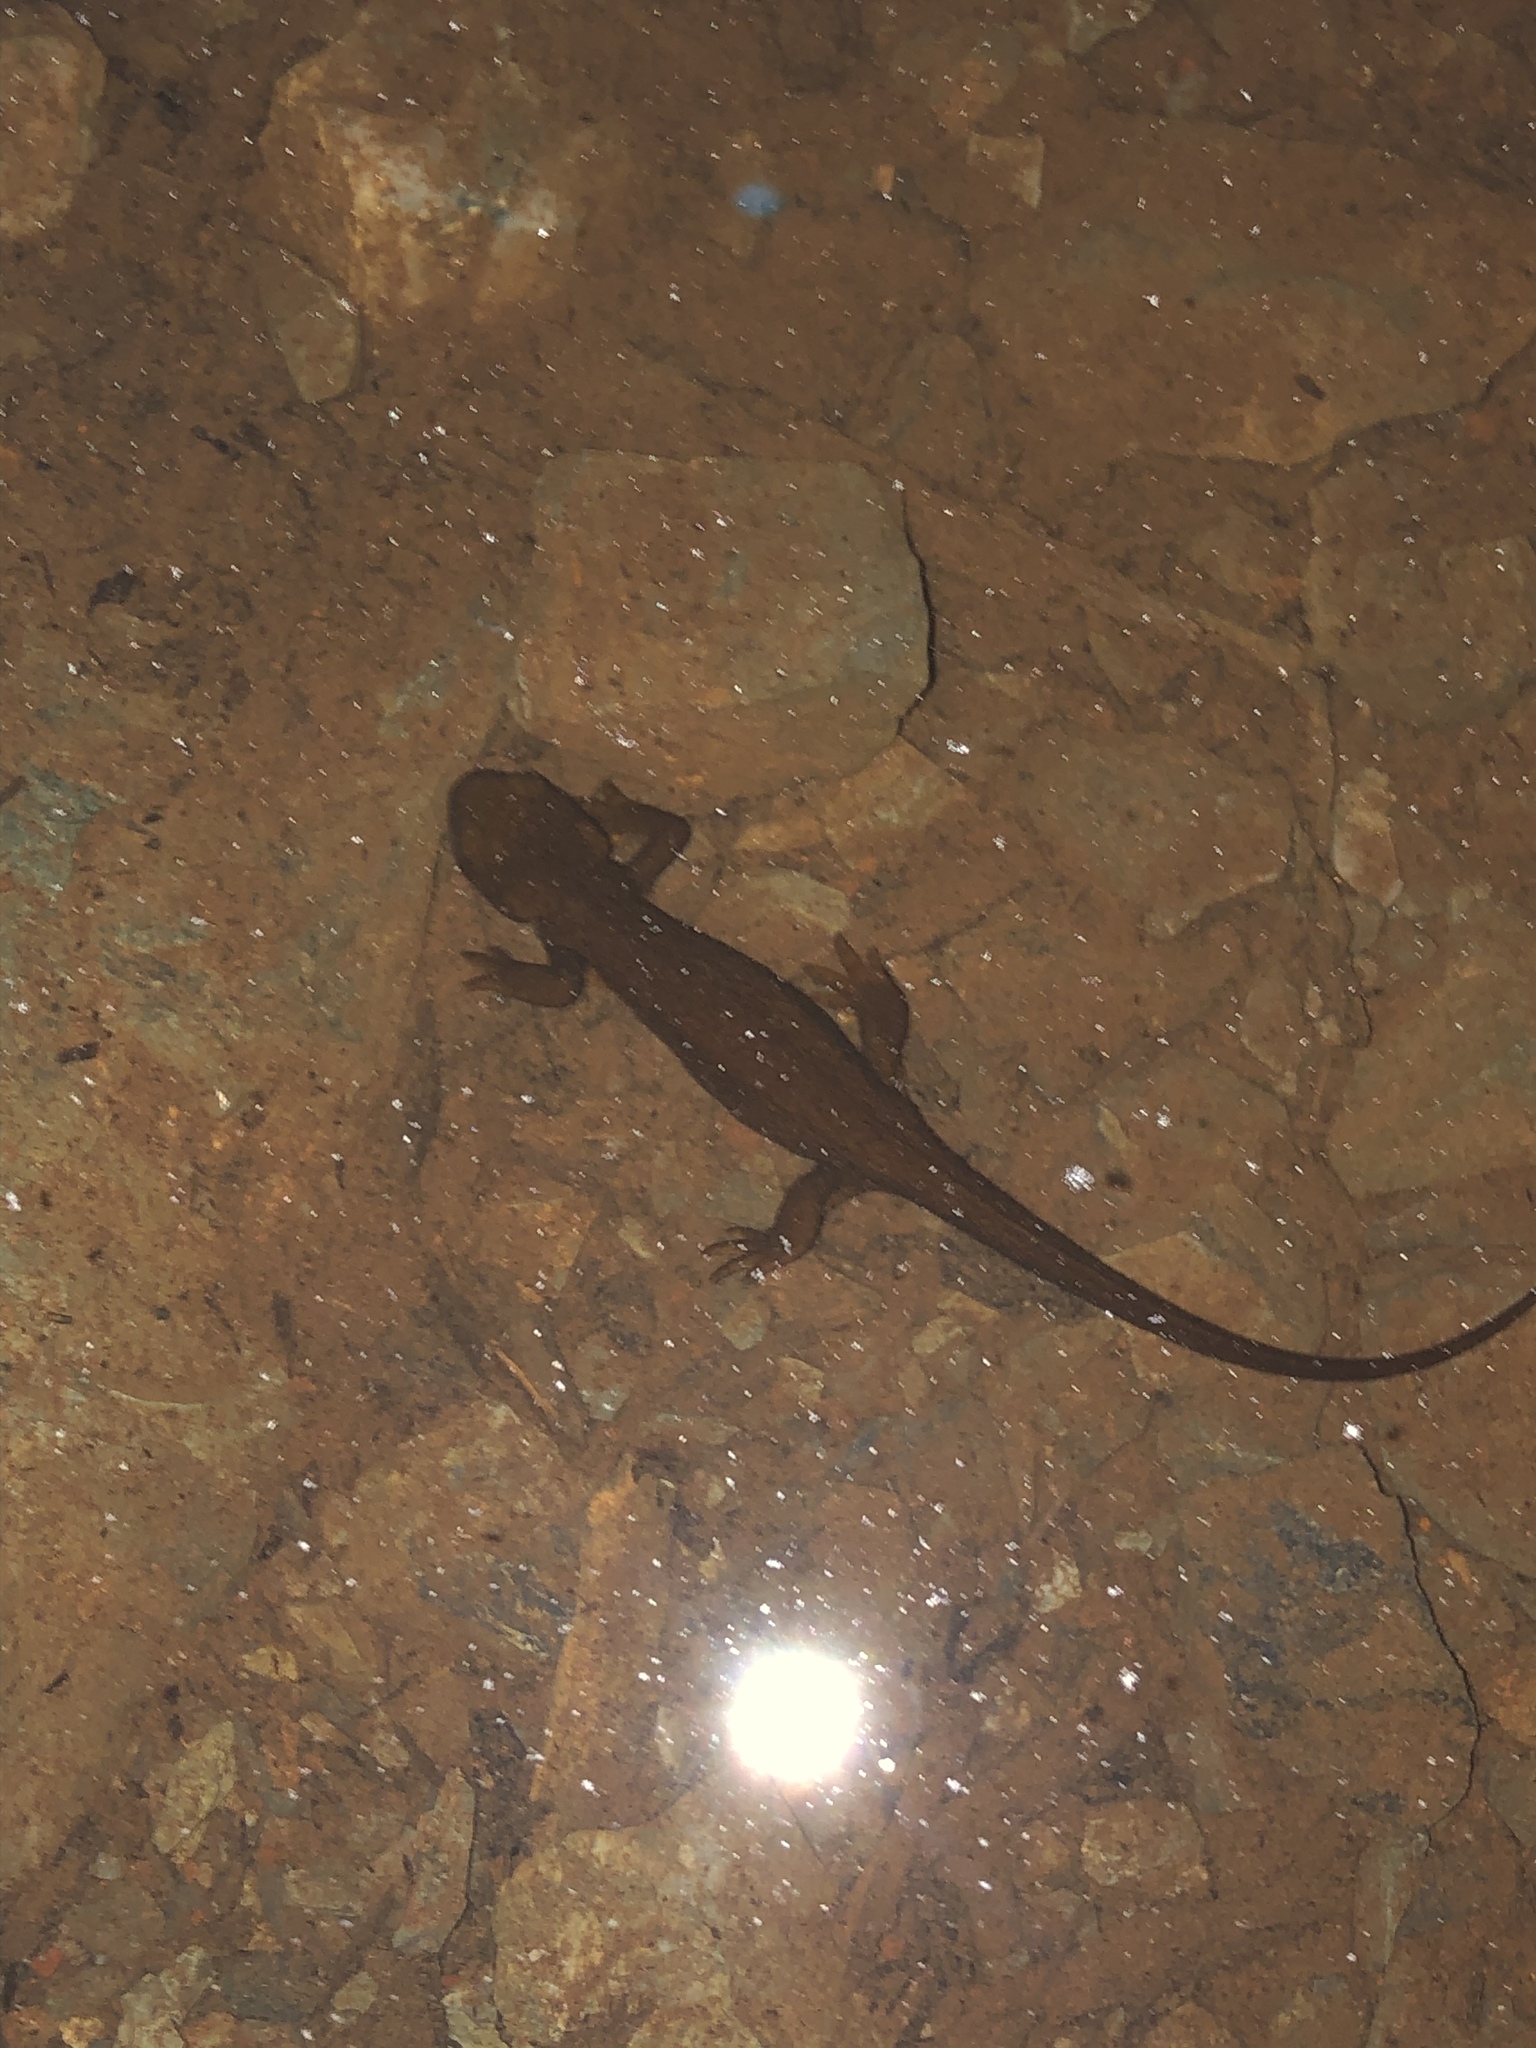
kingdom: Animalia
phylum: Chordata
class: Amphibia
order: Caudata
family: Salamandridae
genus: Taricha
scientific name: Taricha granulosa
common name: Roughskin newt
